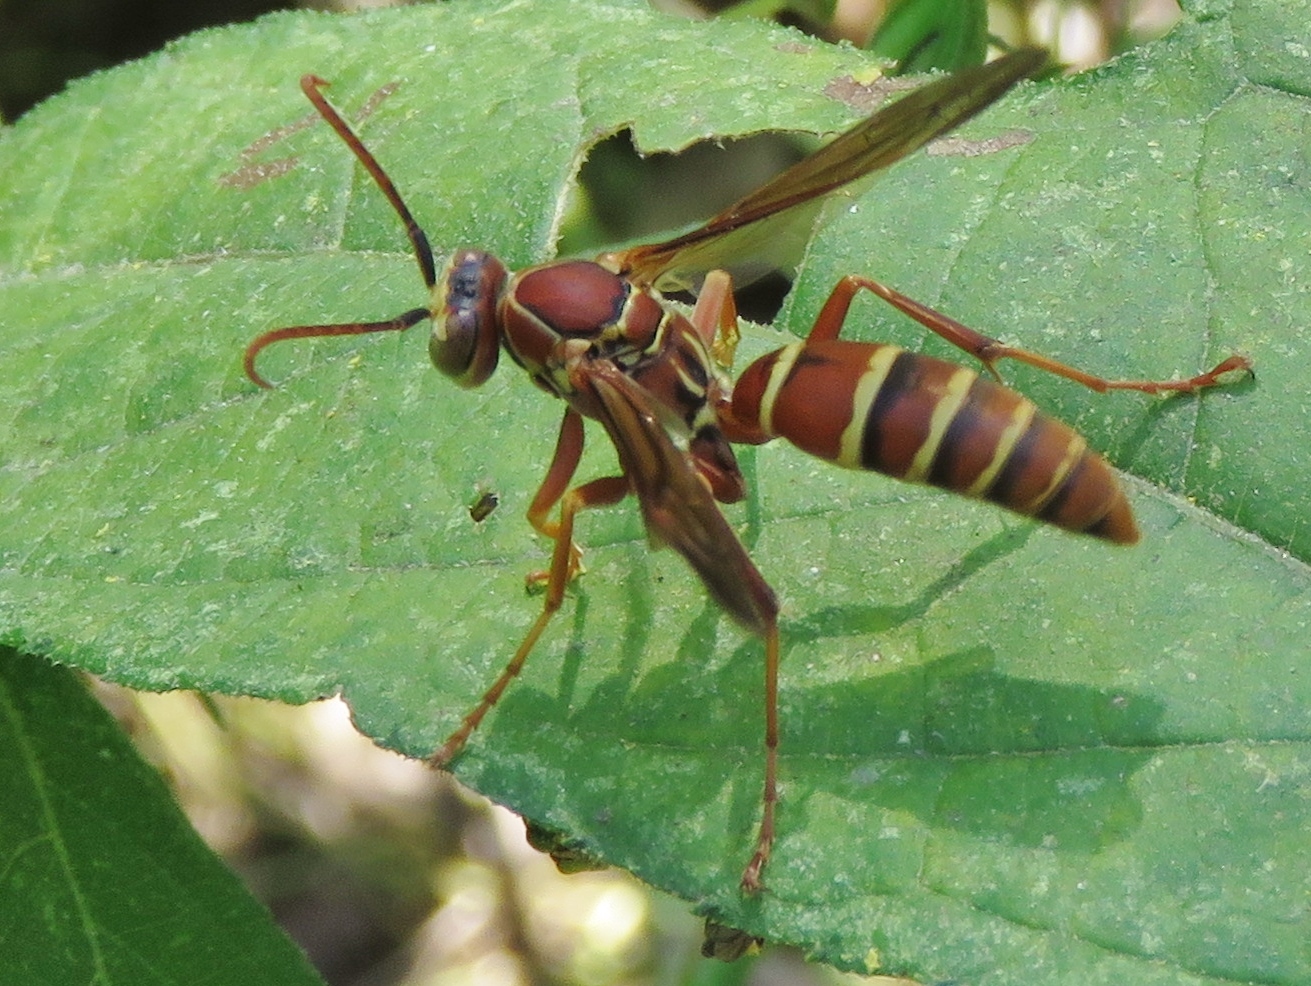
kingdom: Animalia
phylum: Arthropoda
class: Insecta
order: Hymenoptera
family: Eumenidae
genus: Polistes
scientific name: Polistes dorsalis
